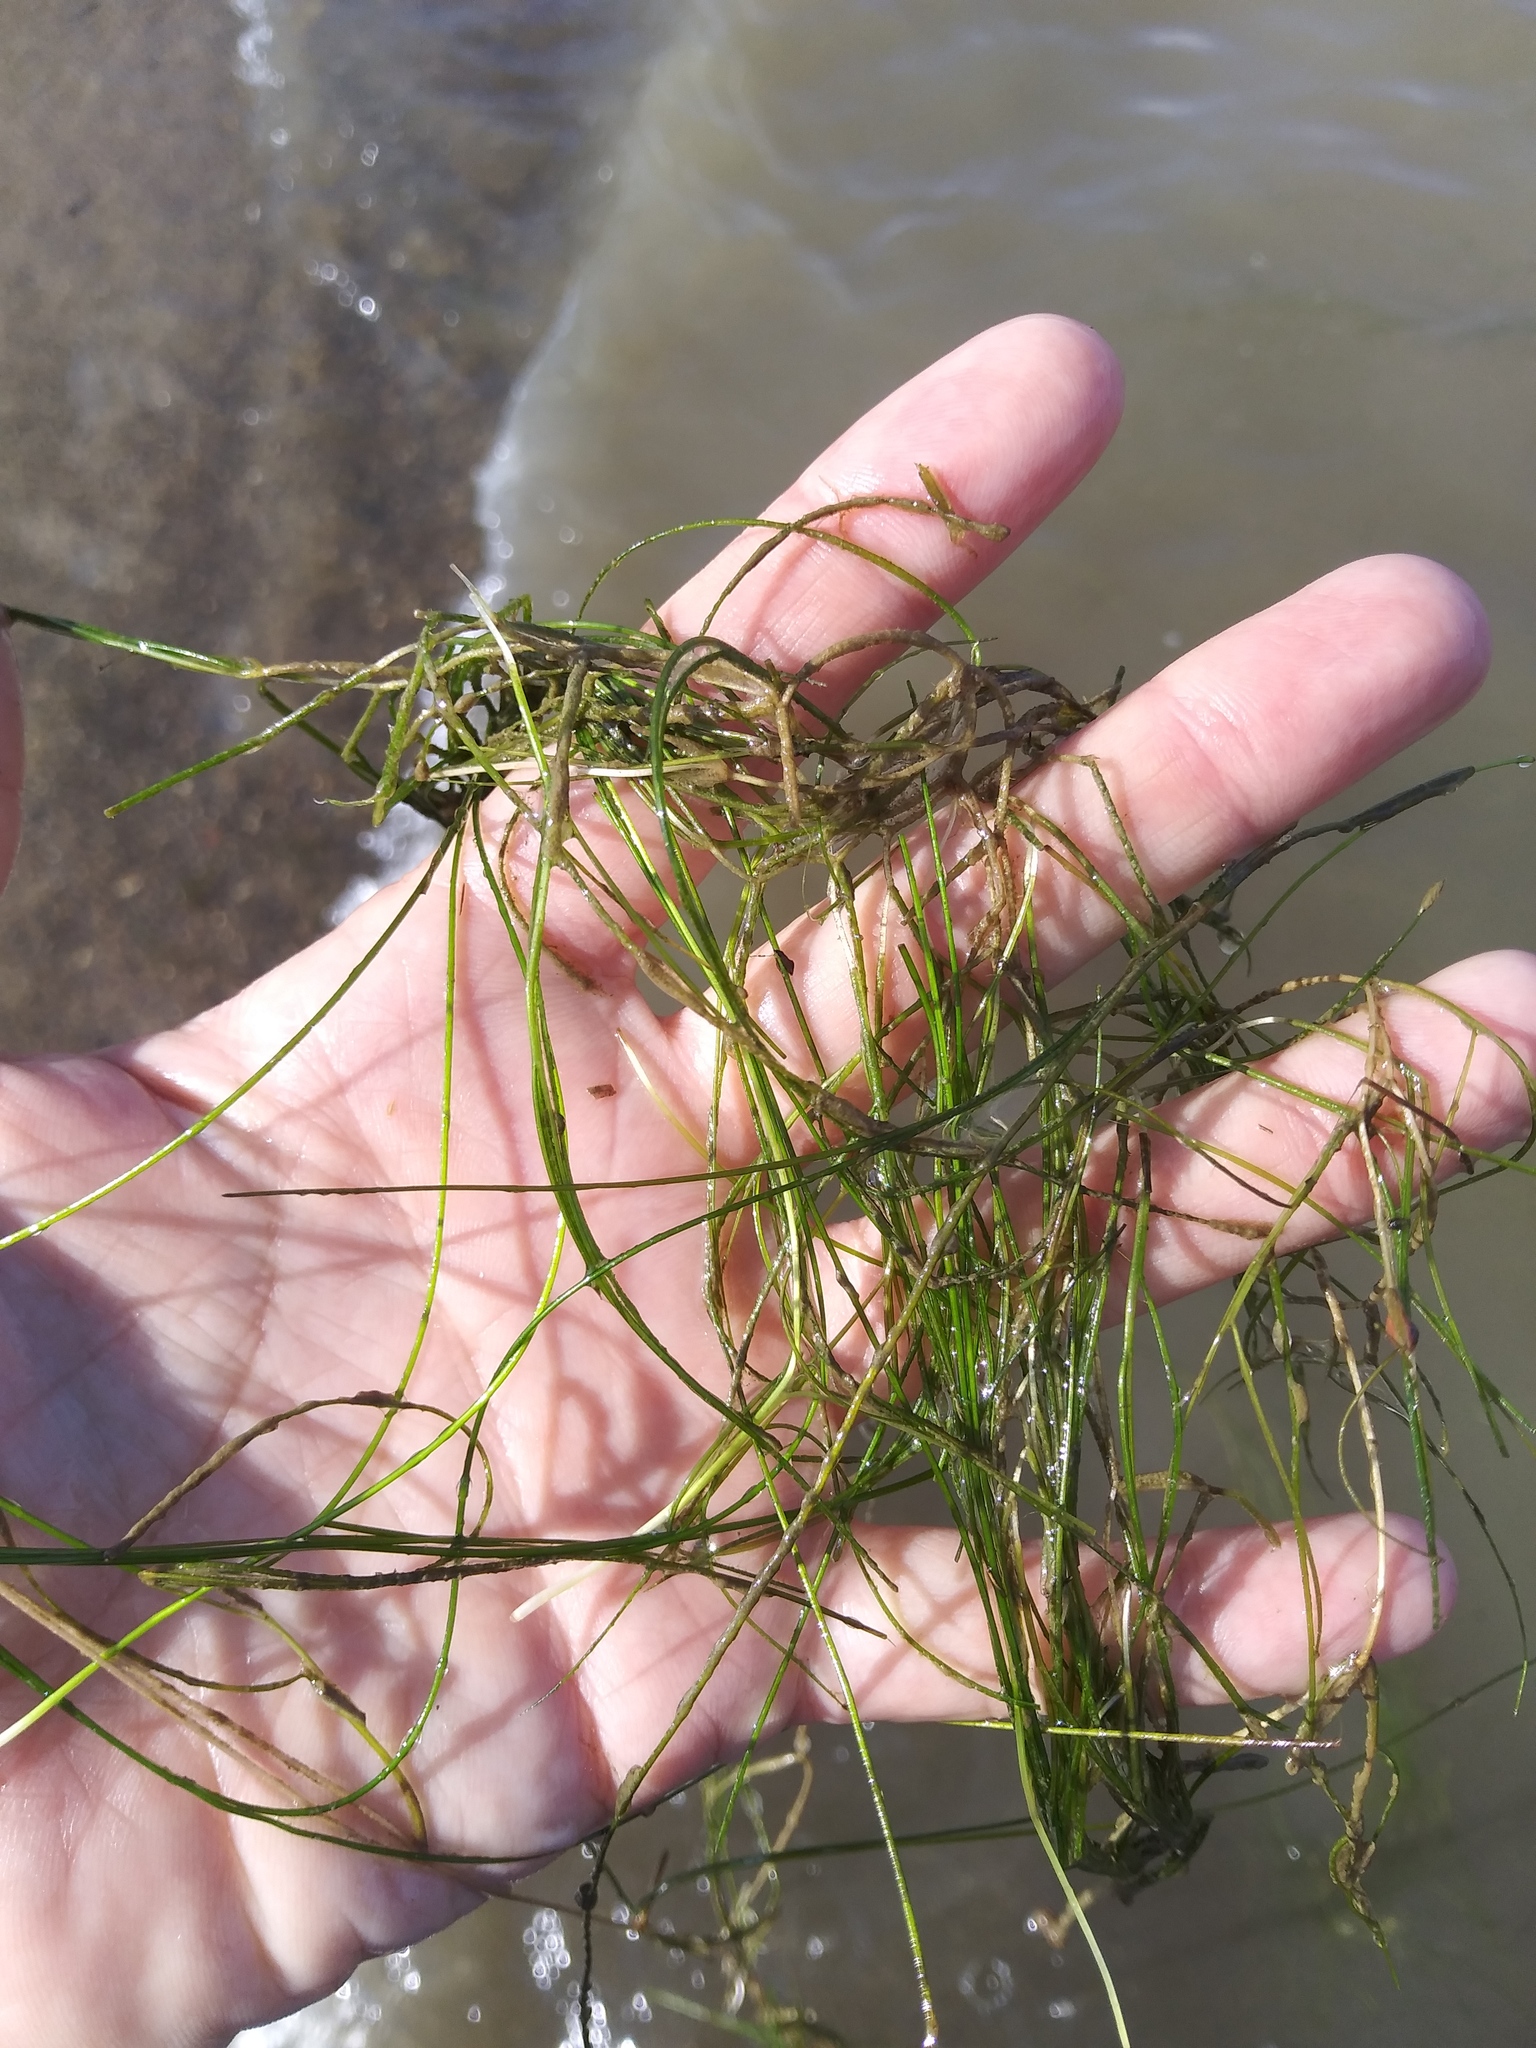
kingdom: Plantae
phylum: Tracheophyta
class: Liliopsida
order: Alismatales
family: Potamogetonaceae
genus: Stuckenia
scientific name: Stuckenia pectinata
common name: Sago pondweed
